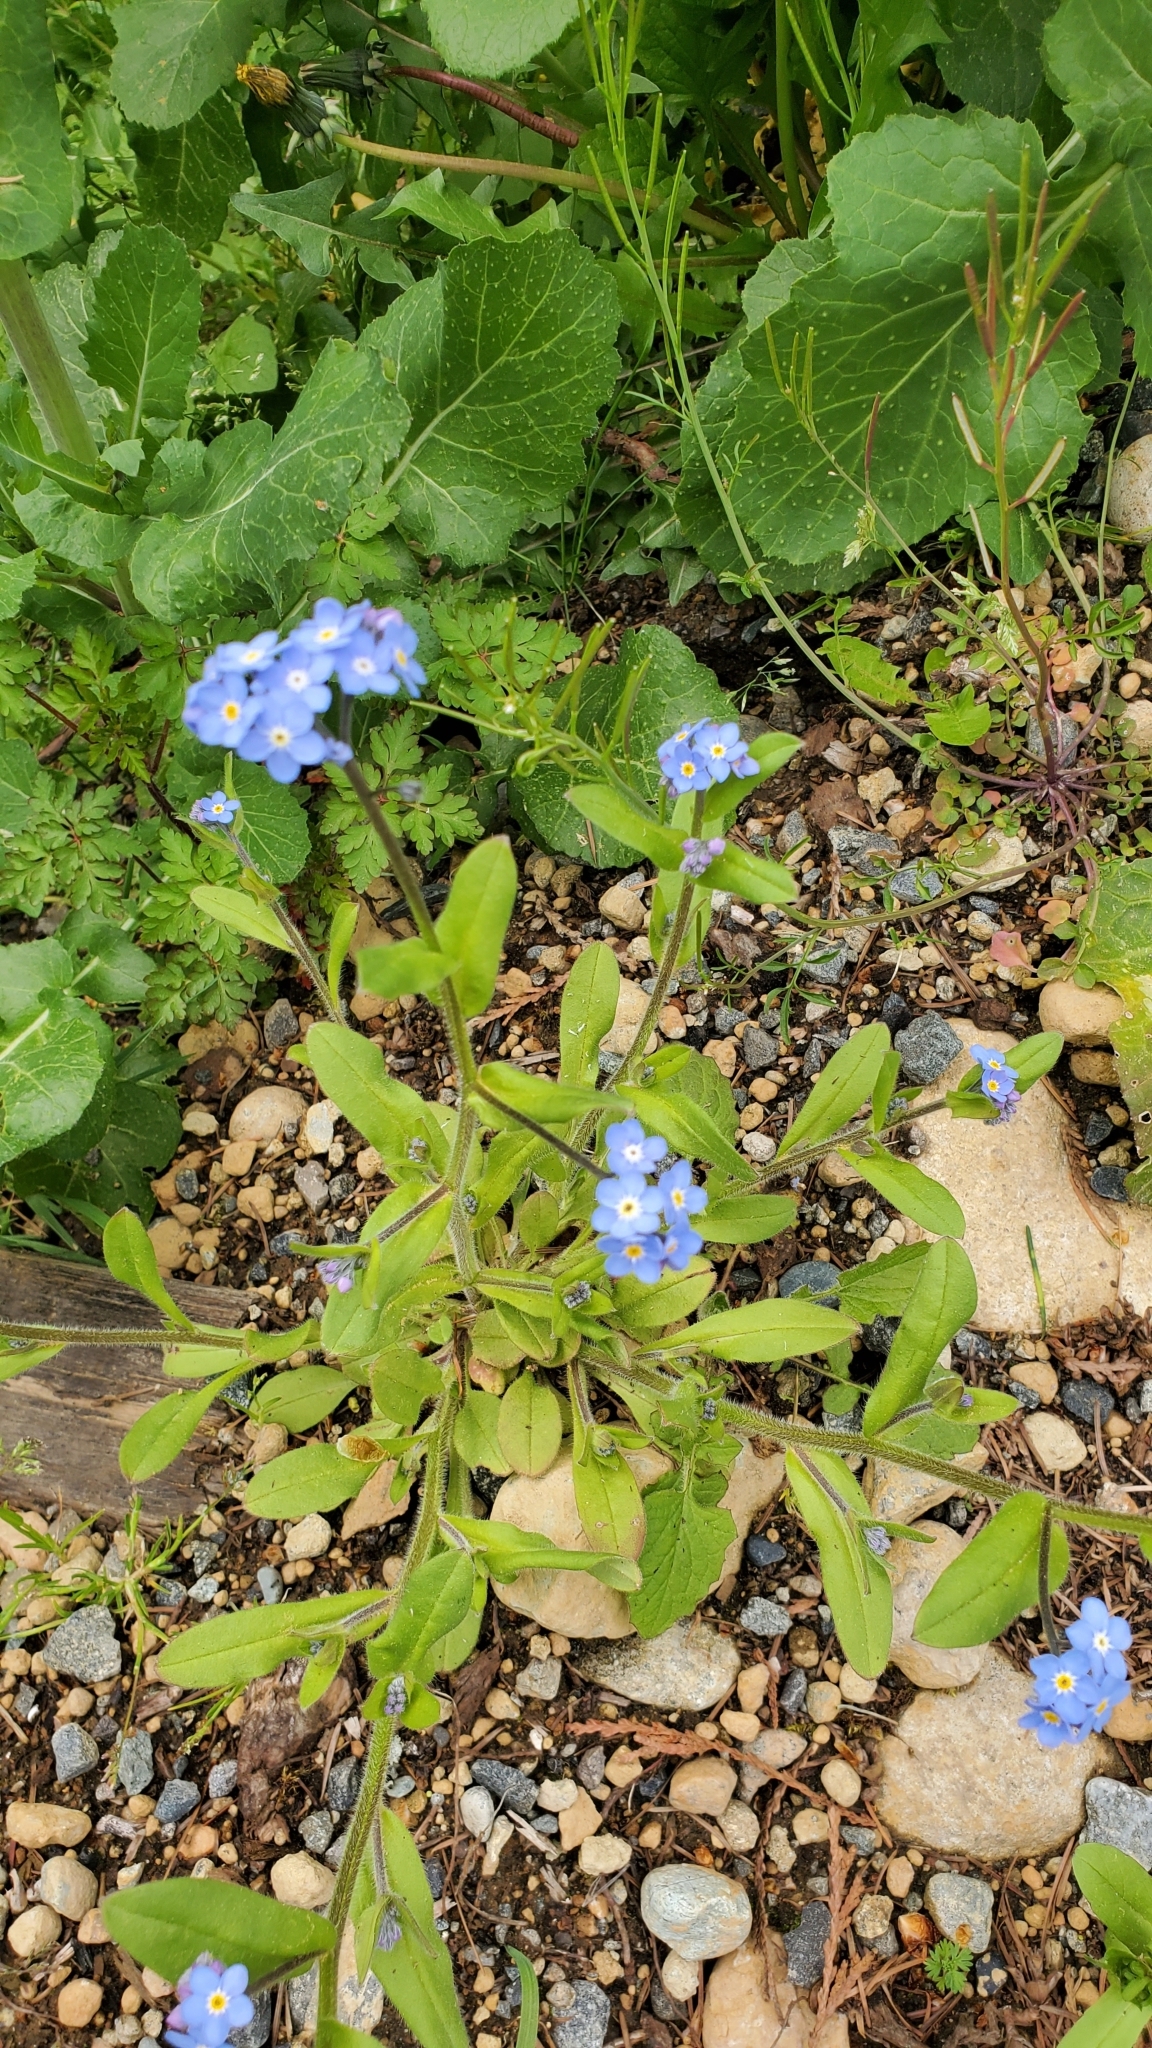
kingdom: Plantae
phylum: Tracheophyta
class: Magnoliopsida
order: Boraginales
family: Boraginaceae
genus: Myosotis
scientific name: Myosotis sylvatica
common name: Wood forget-me-not
